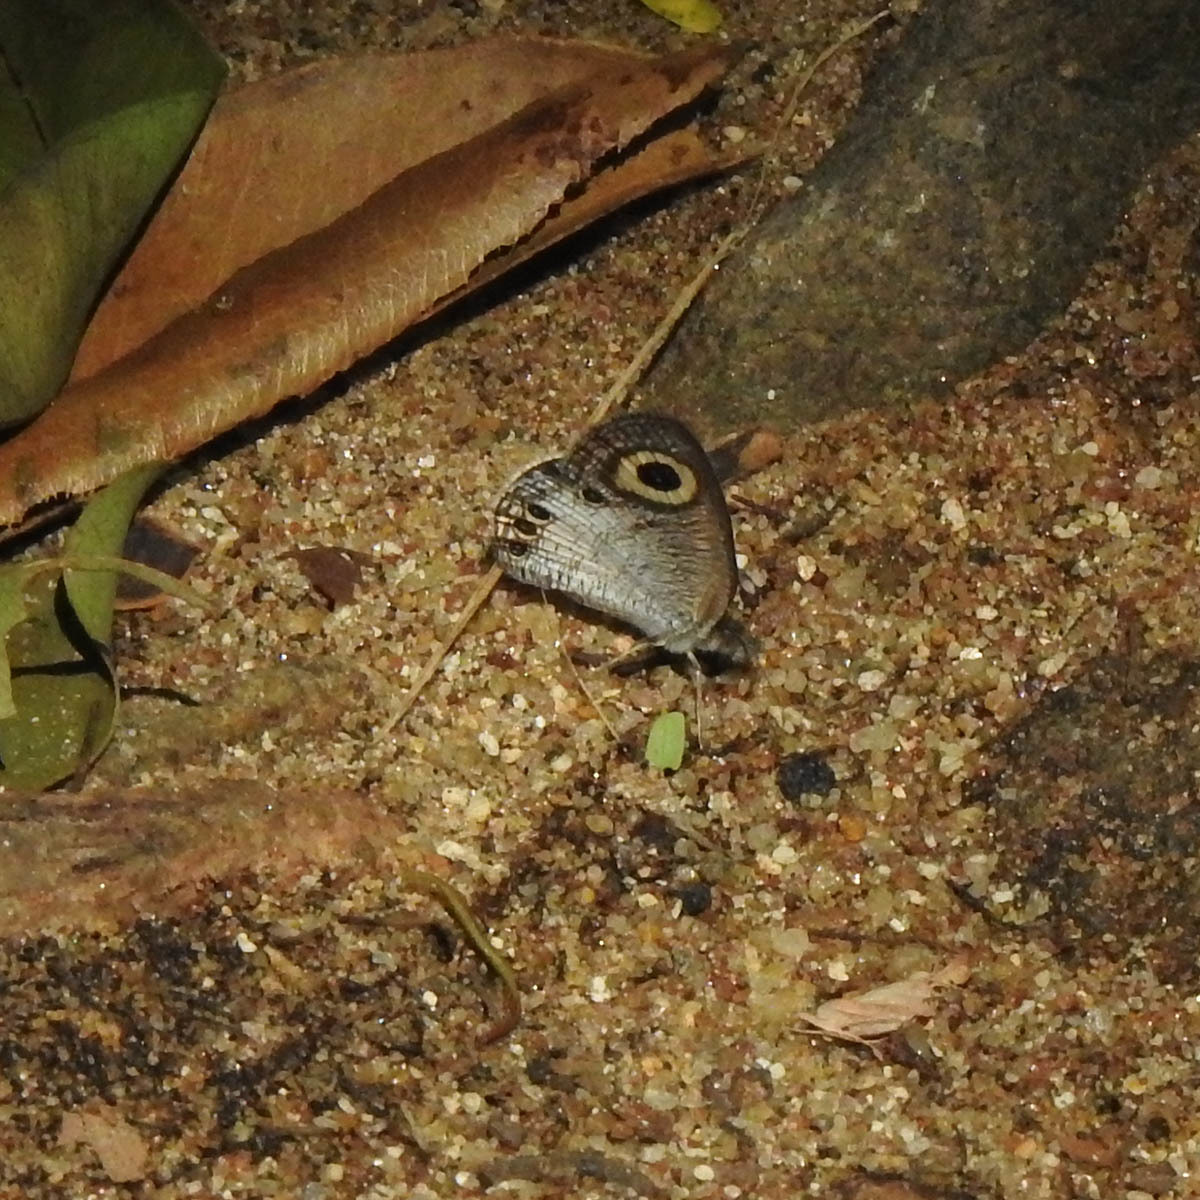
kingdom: Animalia
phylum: Arthropoda
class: Insecta
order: Lepidoptera
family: Nymphalidae
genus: Ypthima
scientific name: Ypthima ceylonica
